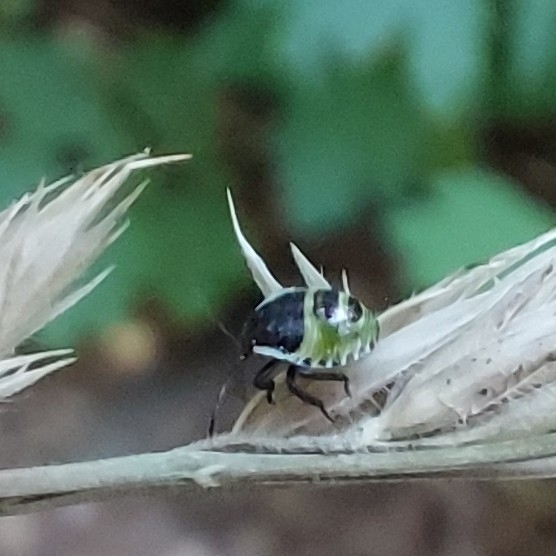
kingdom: Animalia
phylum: Arthropoda
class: Insecta
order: Hemiptera
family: Pentatomidae
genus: Palomena
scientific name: Palomena prasina
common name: Green shieldbug
